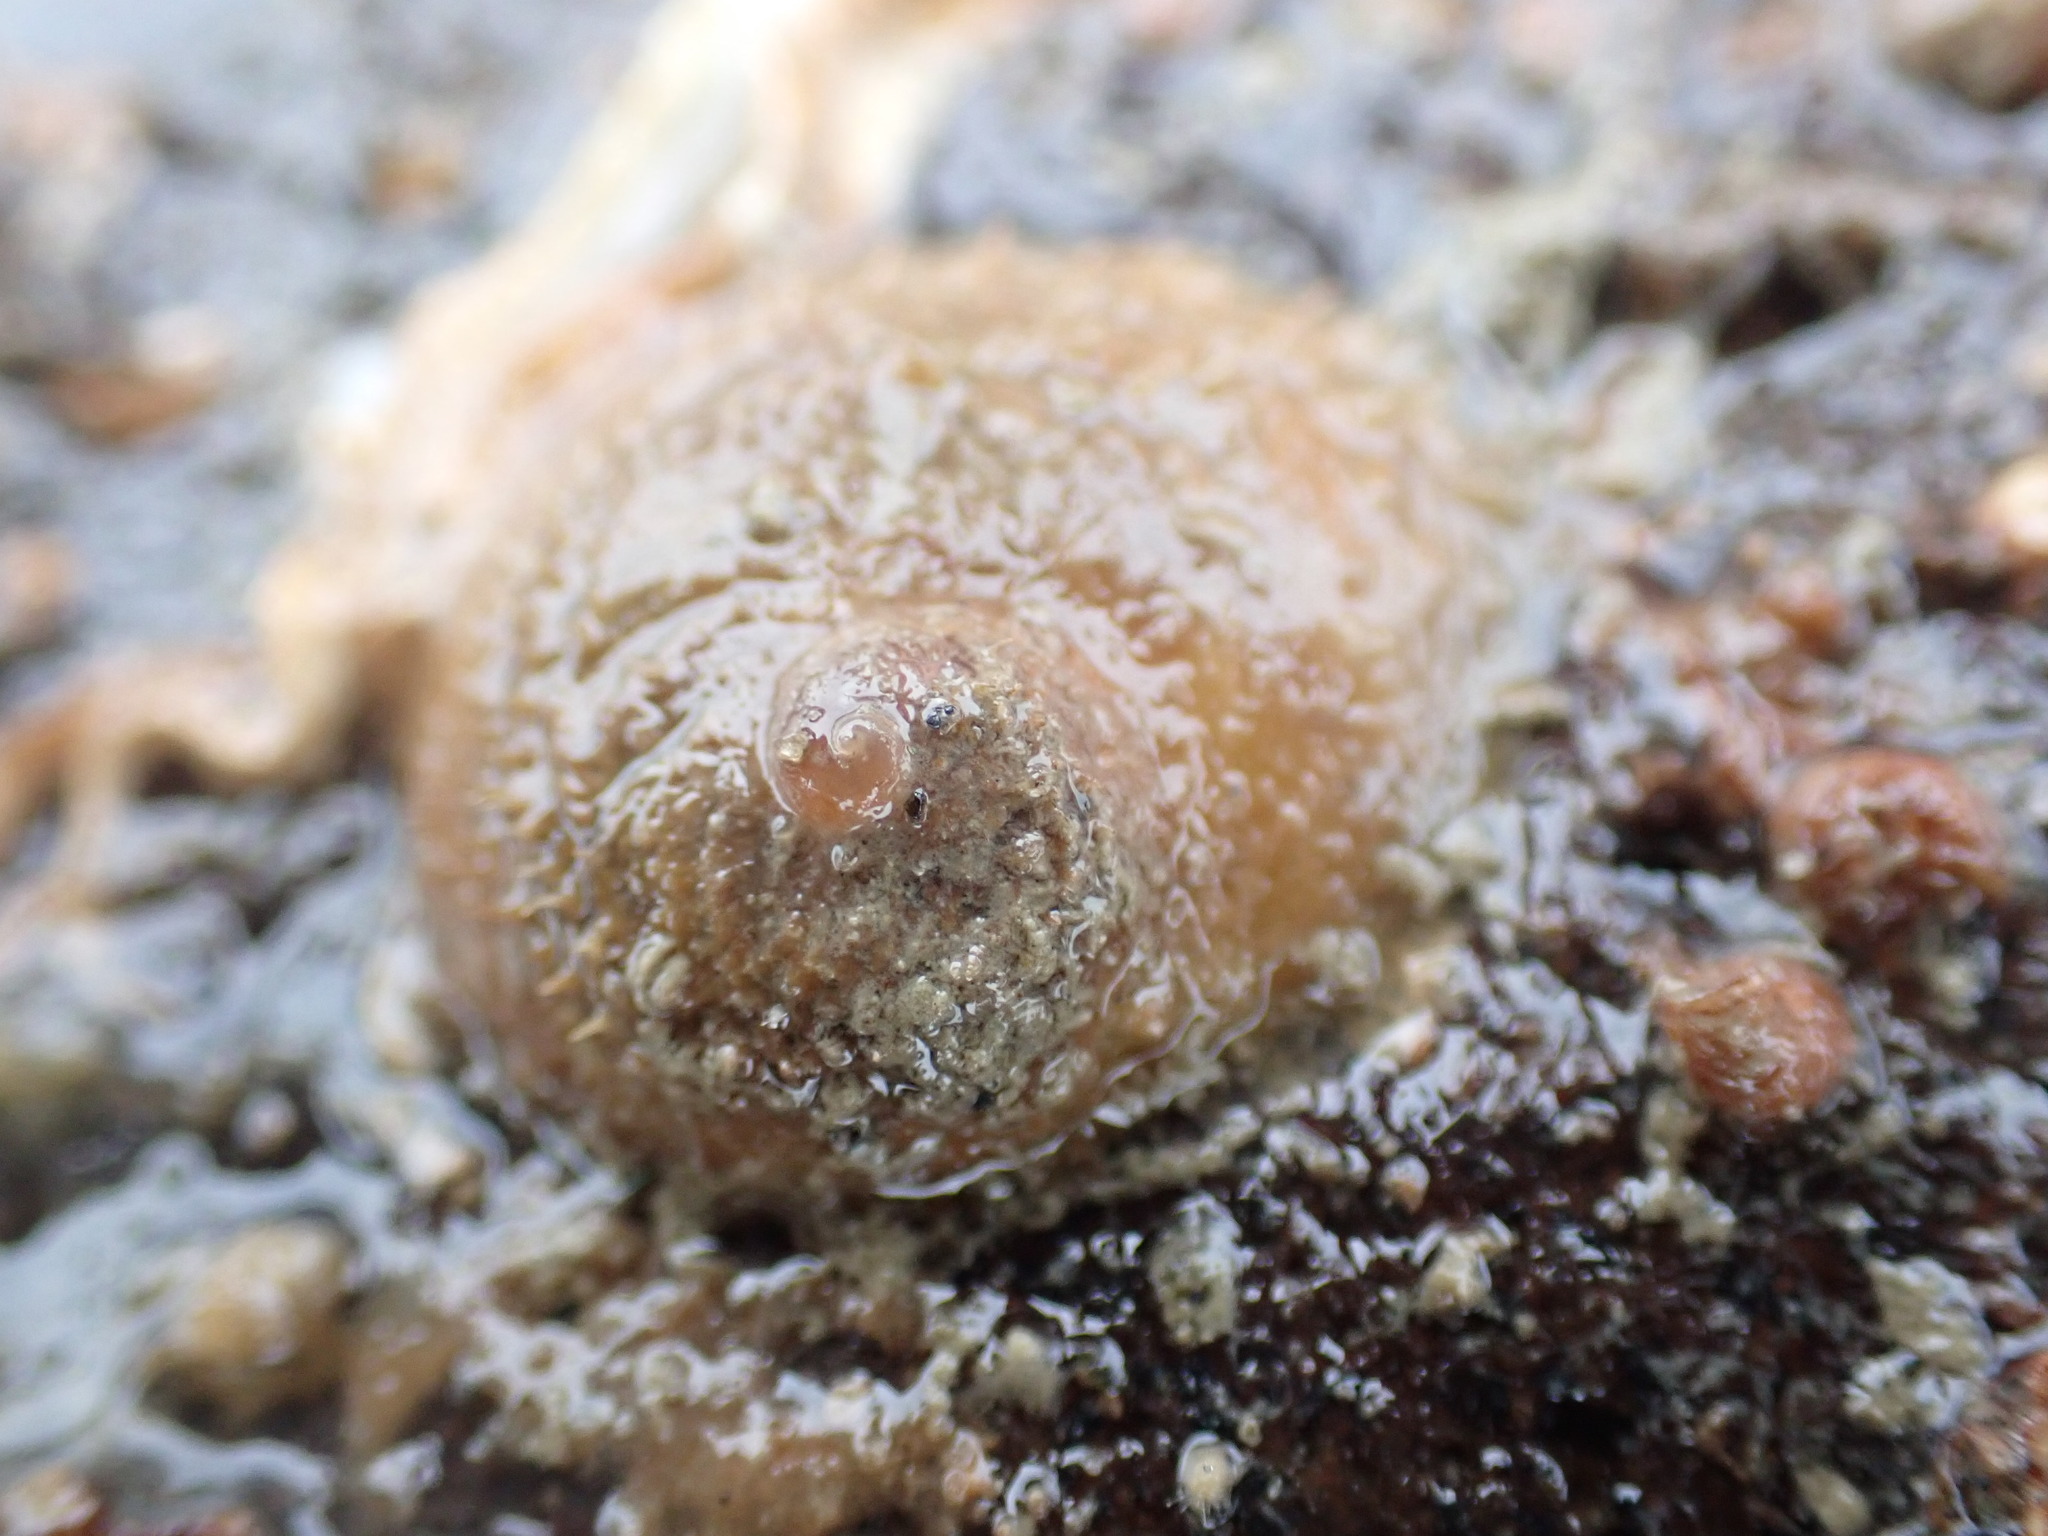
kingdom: Animalia
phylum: Mollusca
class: Gastropoda
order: Littorinimorpha
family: Calyptraeidae
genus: Sigapatella
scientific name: Sigapatella novaezelandiae
